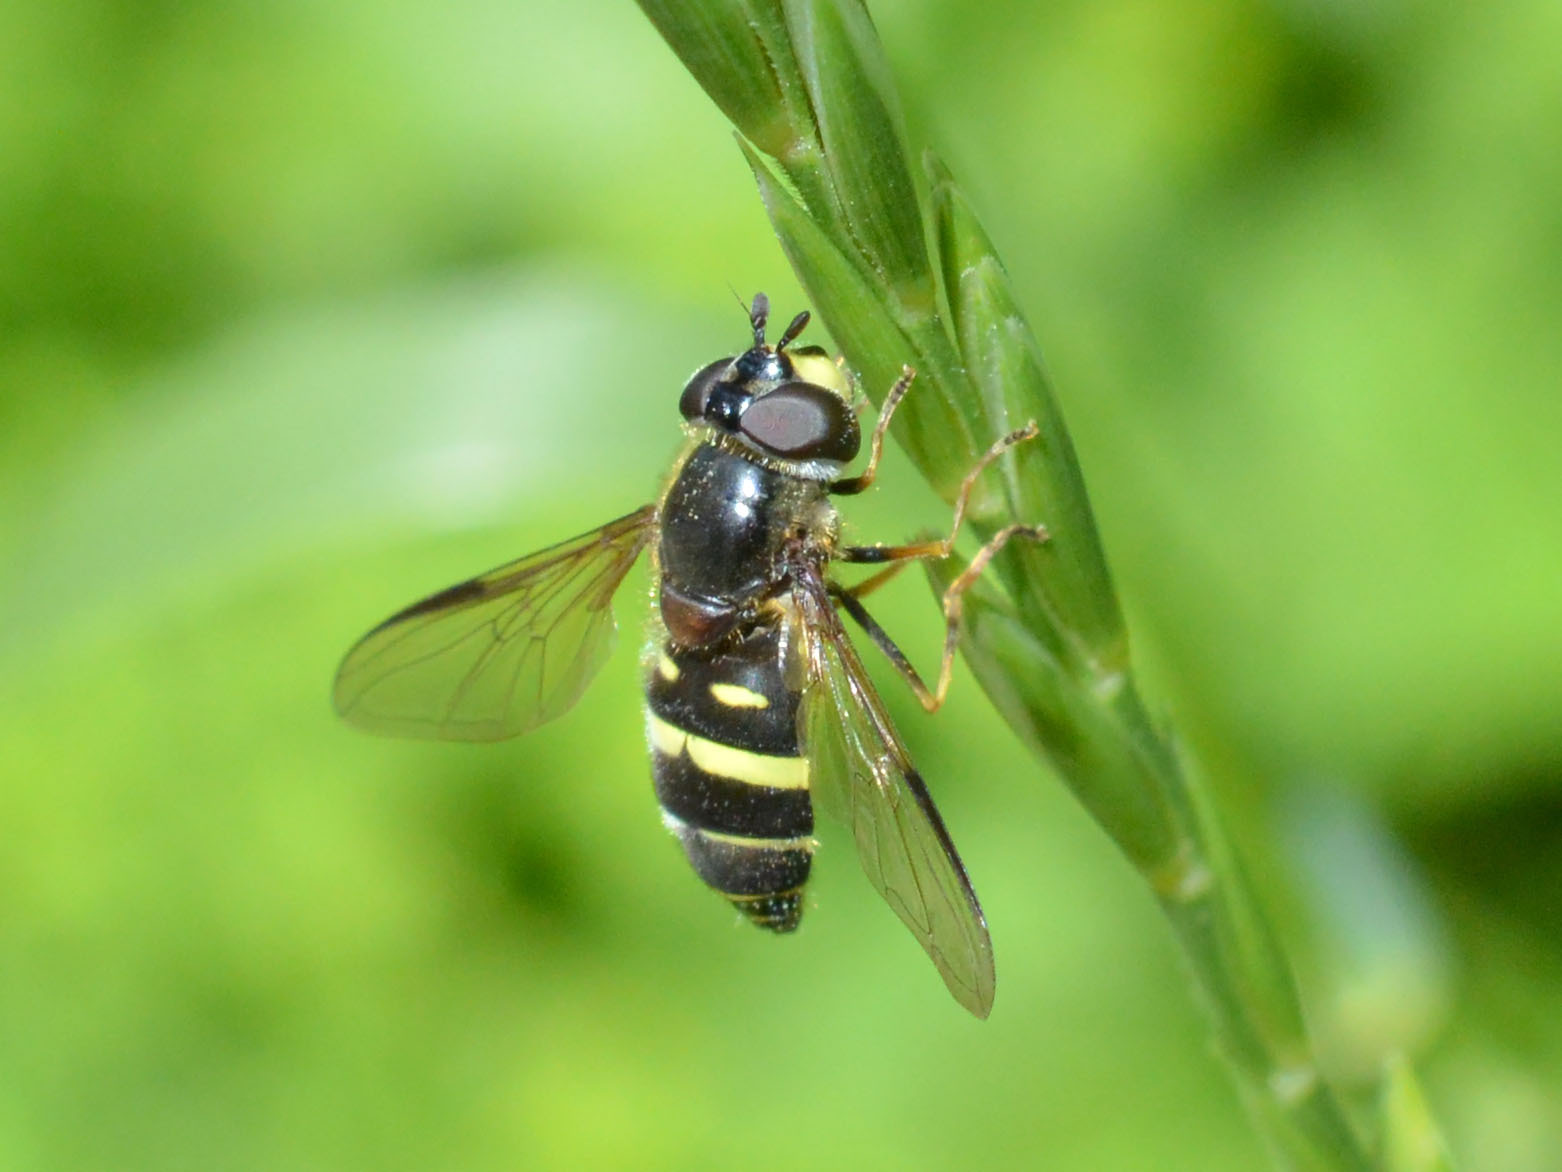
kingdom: Animalia
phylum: Arthropoda
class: Insecta
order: Diptera
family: Syrphidae
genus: Dasysyrphus
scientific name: Dasysyrphus tricinctus
